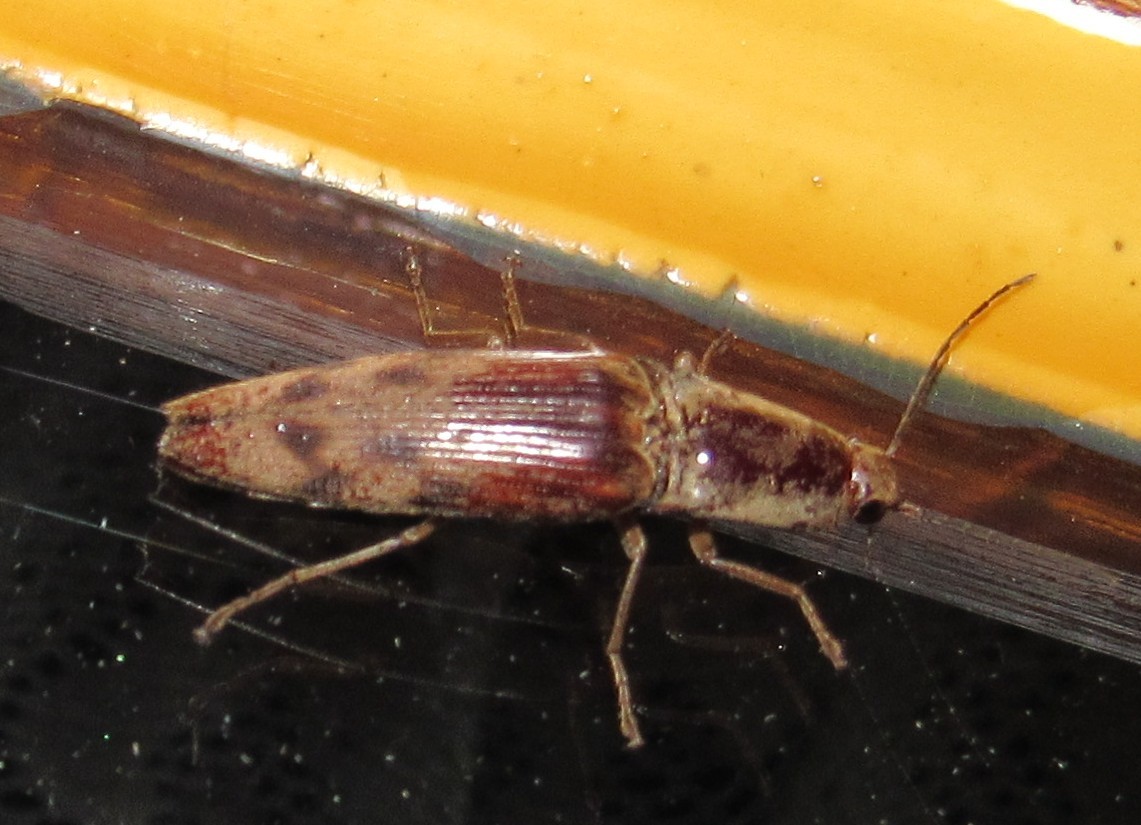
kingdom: Animalia
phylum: Arthropoda
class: Insecta
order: Coleoptera
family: Elateridae
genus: Monocrepidius
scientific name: Monocrepidius
